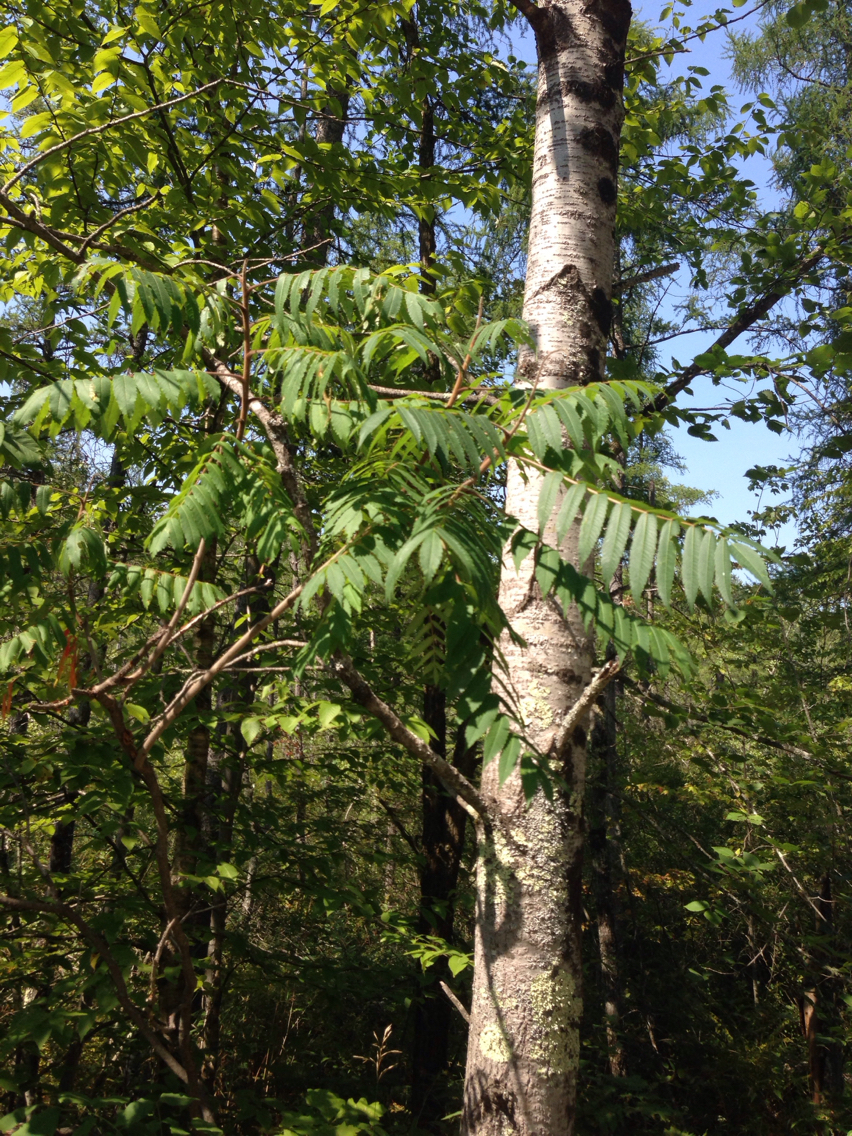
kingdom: Plantae
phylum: Tracheophyta
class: Magnoliopsida
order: Sapindales
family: Anacardiaceae
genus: Rhus
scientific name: Rhus typhina
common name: Staghorn sumac
